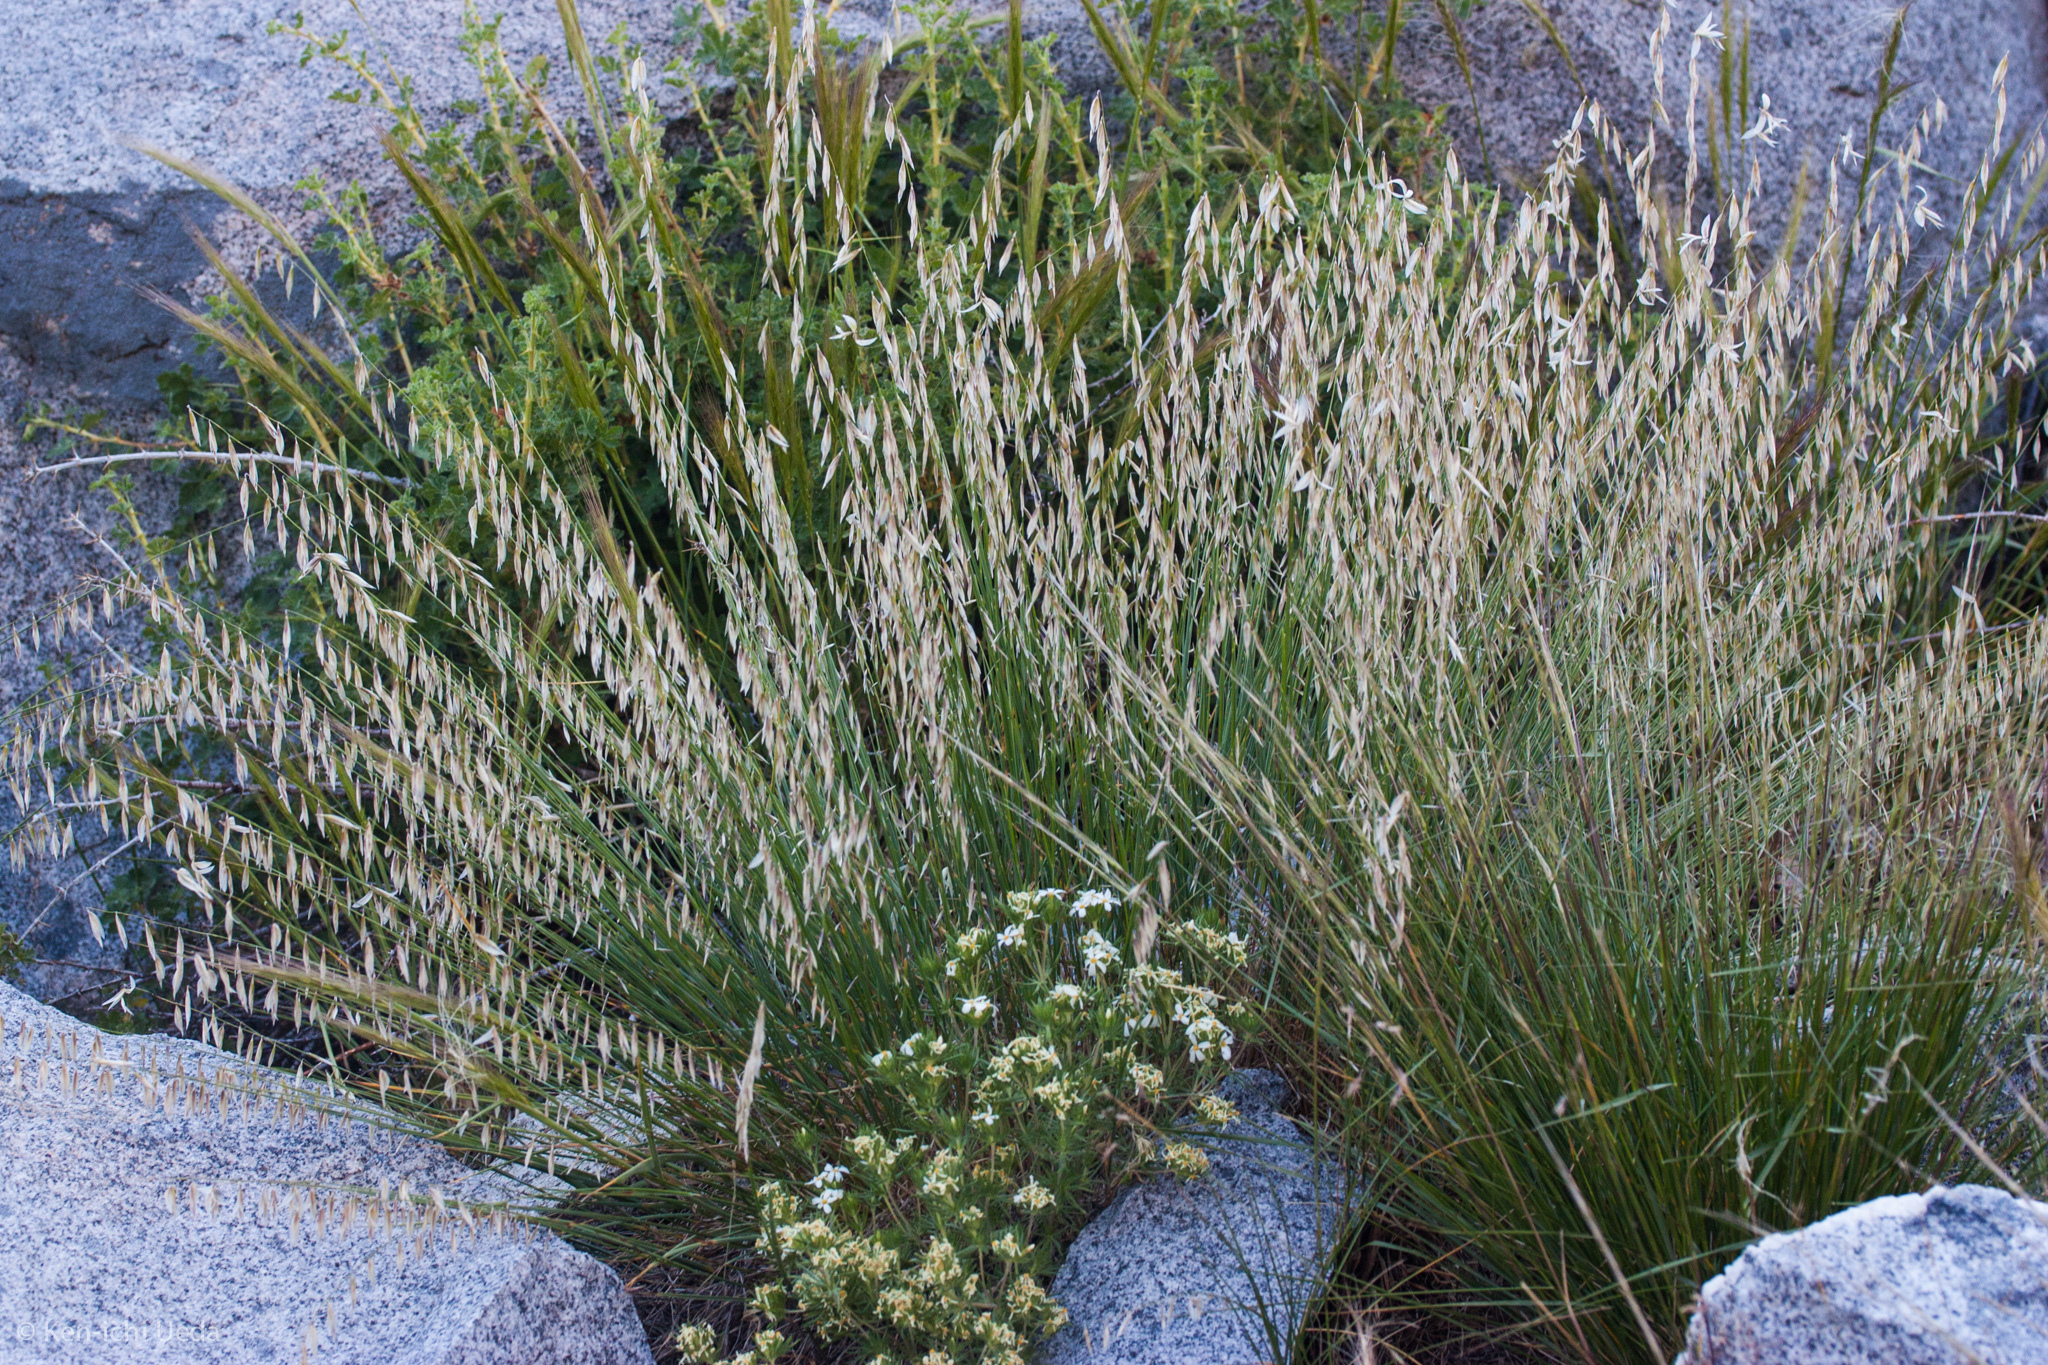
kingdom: Plantae
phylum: Tracheophyta
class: Liliopsida
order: Poales
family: Poaceae
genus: Melica
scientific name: Melica stricta
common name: Rock melic
